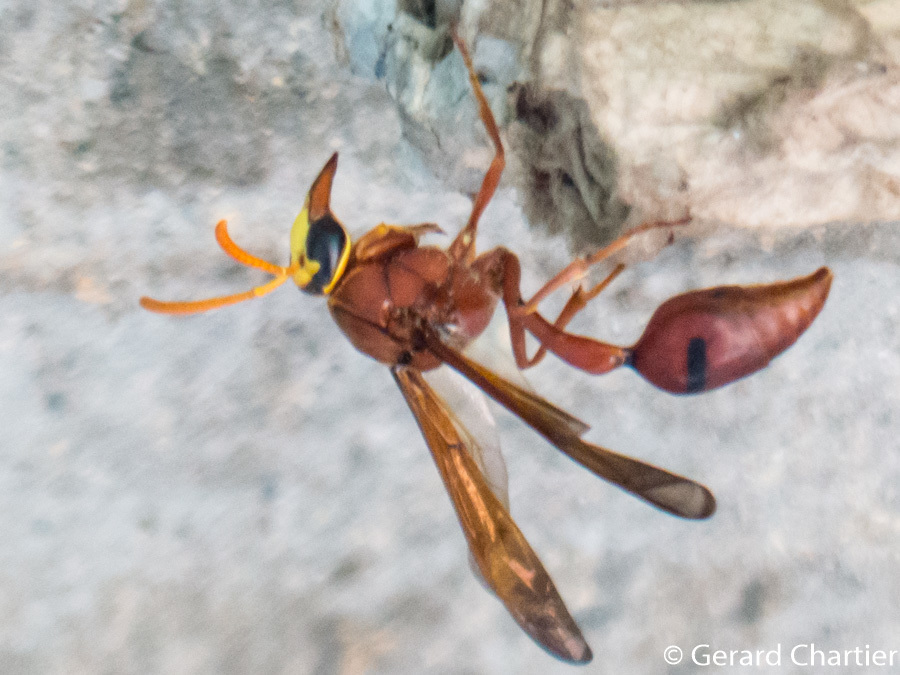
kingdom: Animalia
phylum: Arthropoda
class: Insecta
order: Hymenoptera
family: Eumenidae
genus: Delta
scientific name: Delta conoideum
